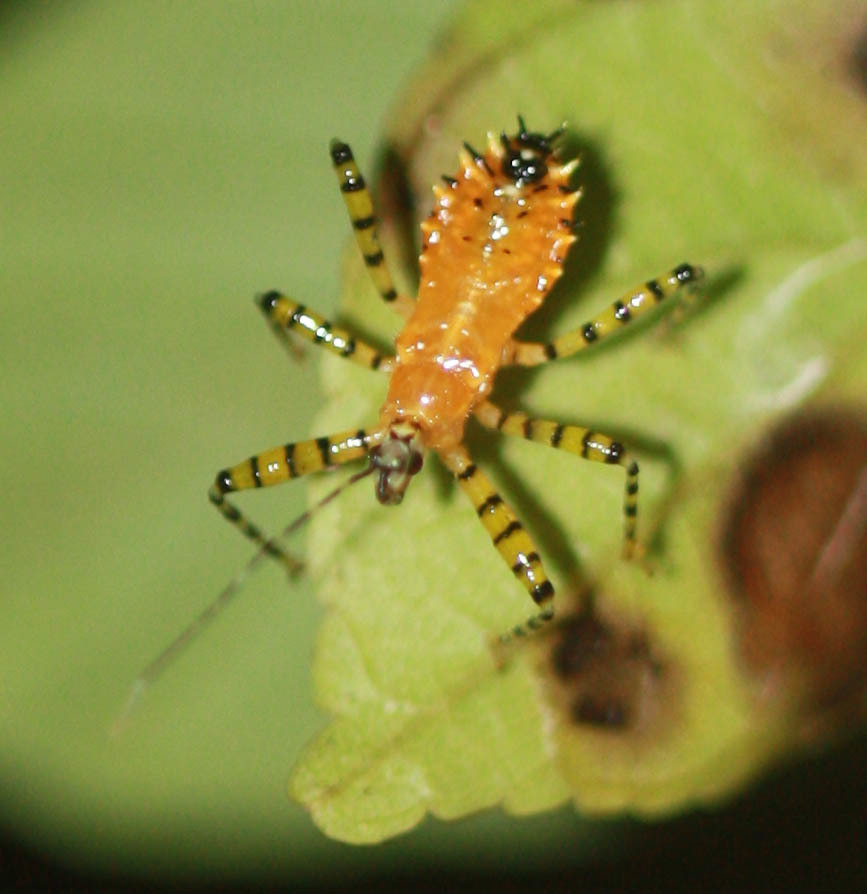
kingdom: Animalia
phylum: Arthropoda
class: Insecta
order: Hemiptera
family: Reduviidae
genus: Pselliopus
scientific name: Pselliopus barberi
